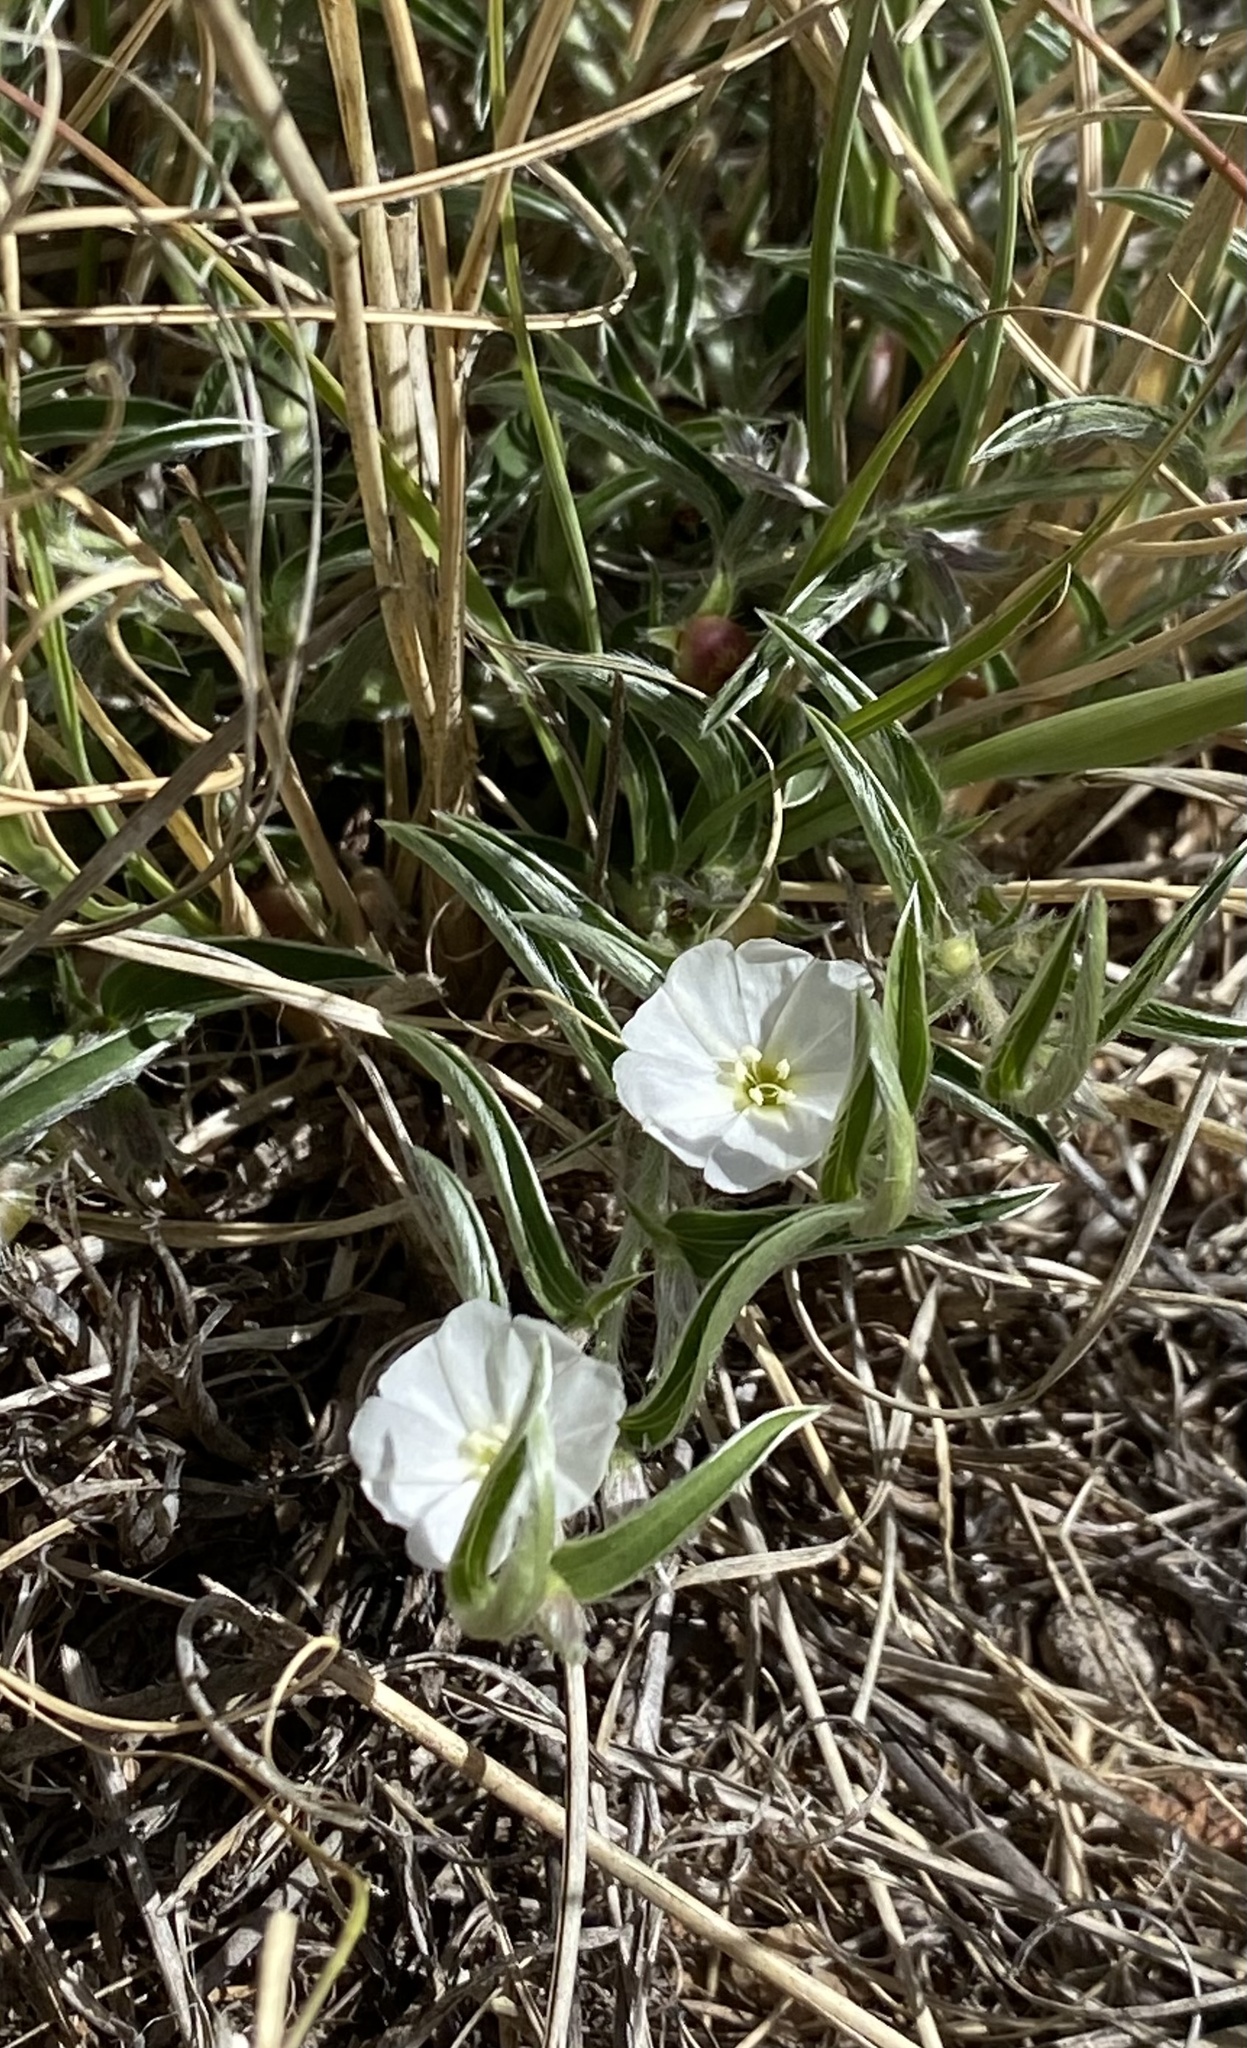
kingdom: Plantae
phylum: Tracheophyta
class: Magnoliopsida
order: Solanales
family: Convolvulaceae
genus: Evolvulus
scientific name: Evolvulus sericeus
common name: Blue dots
